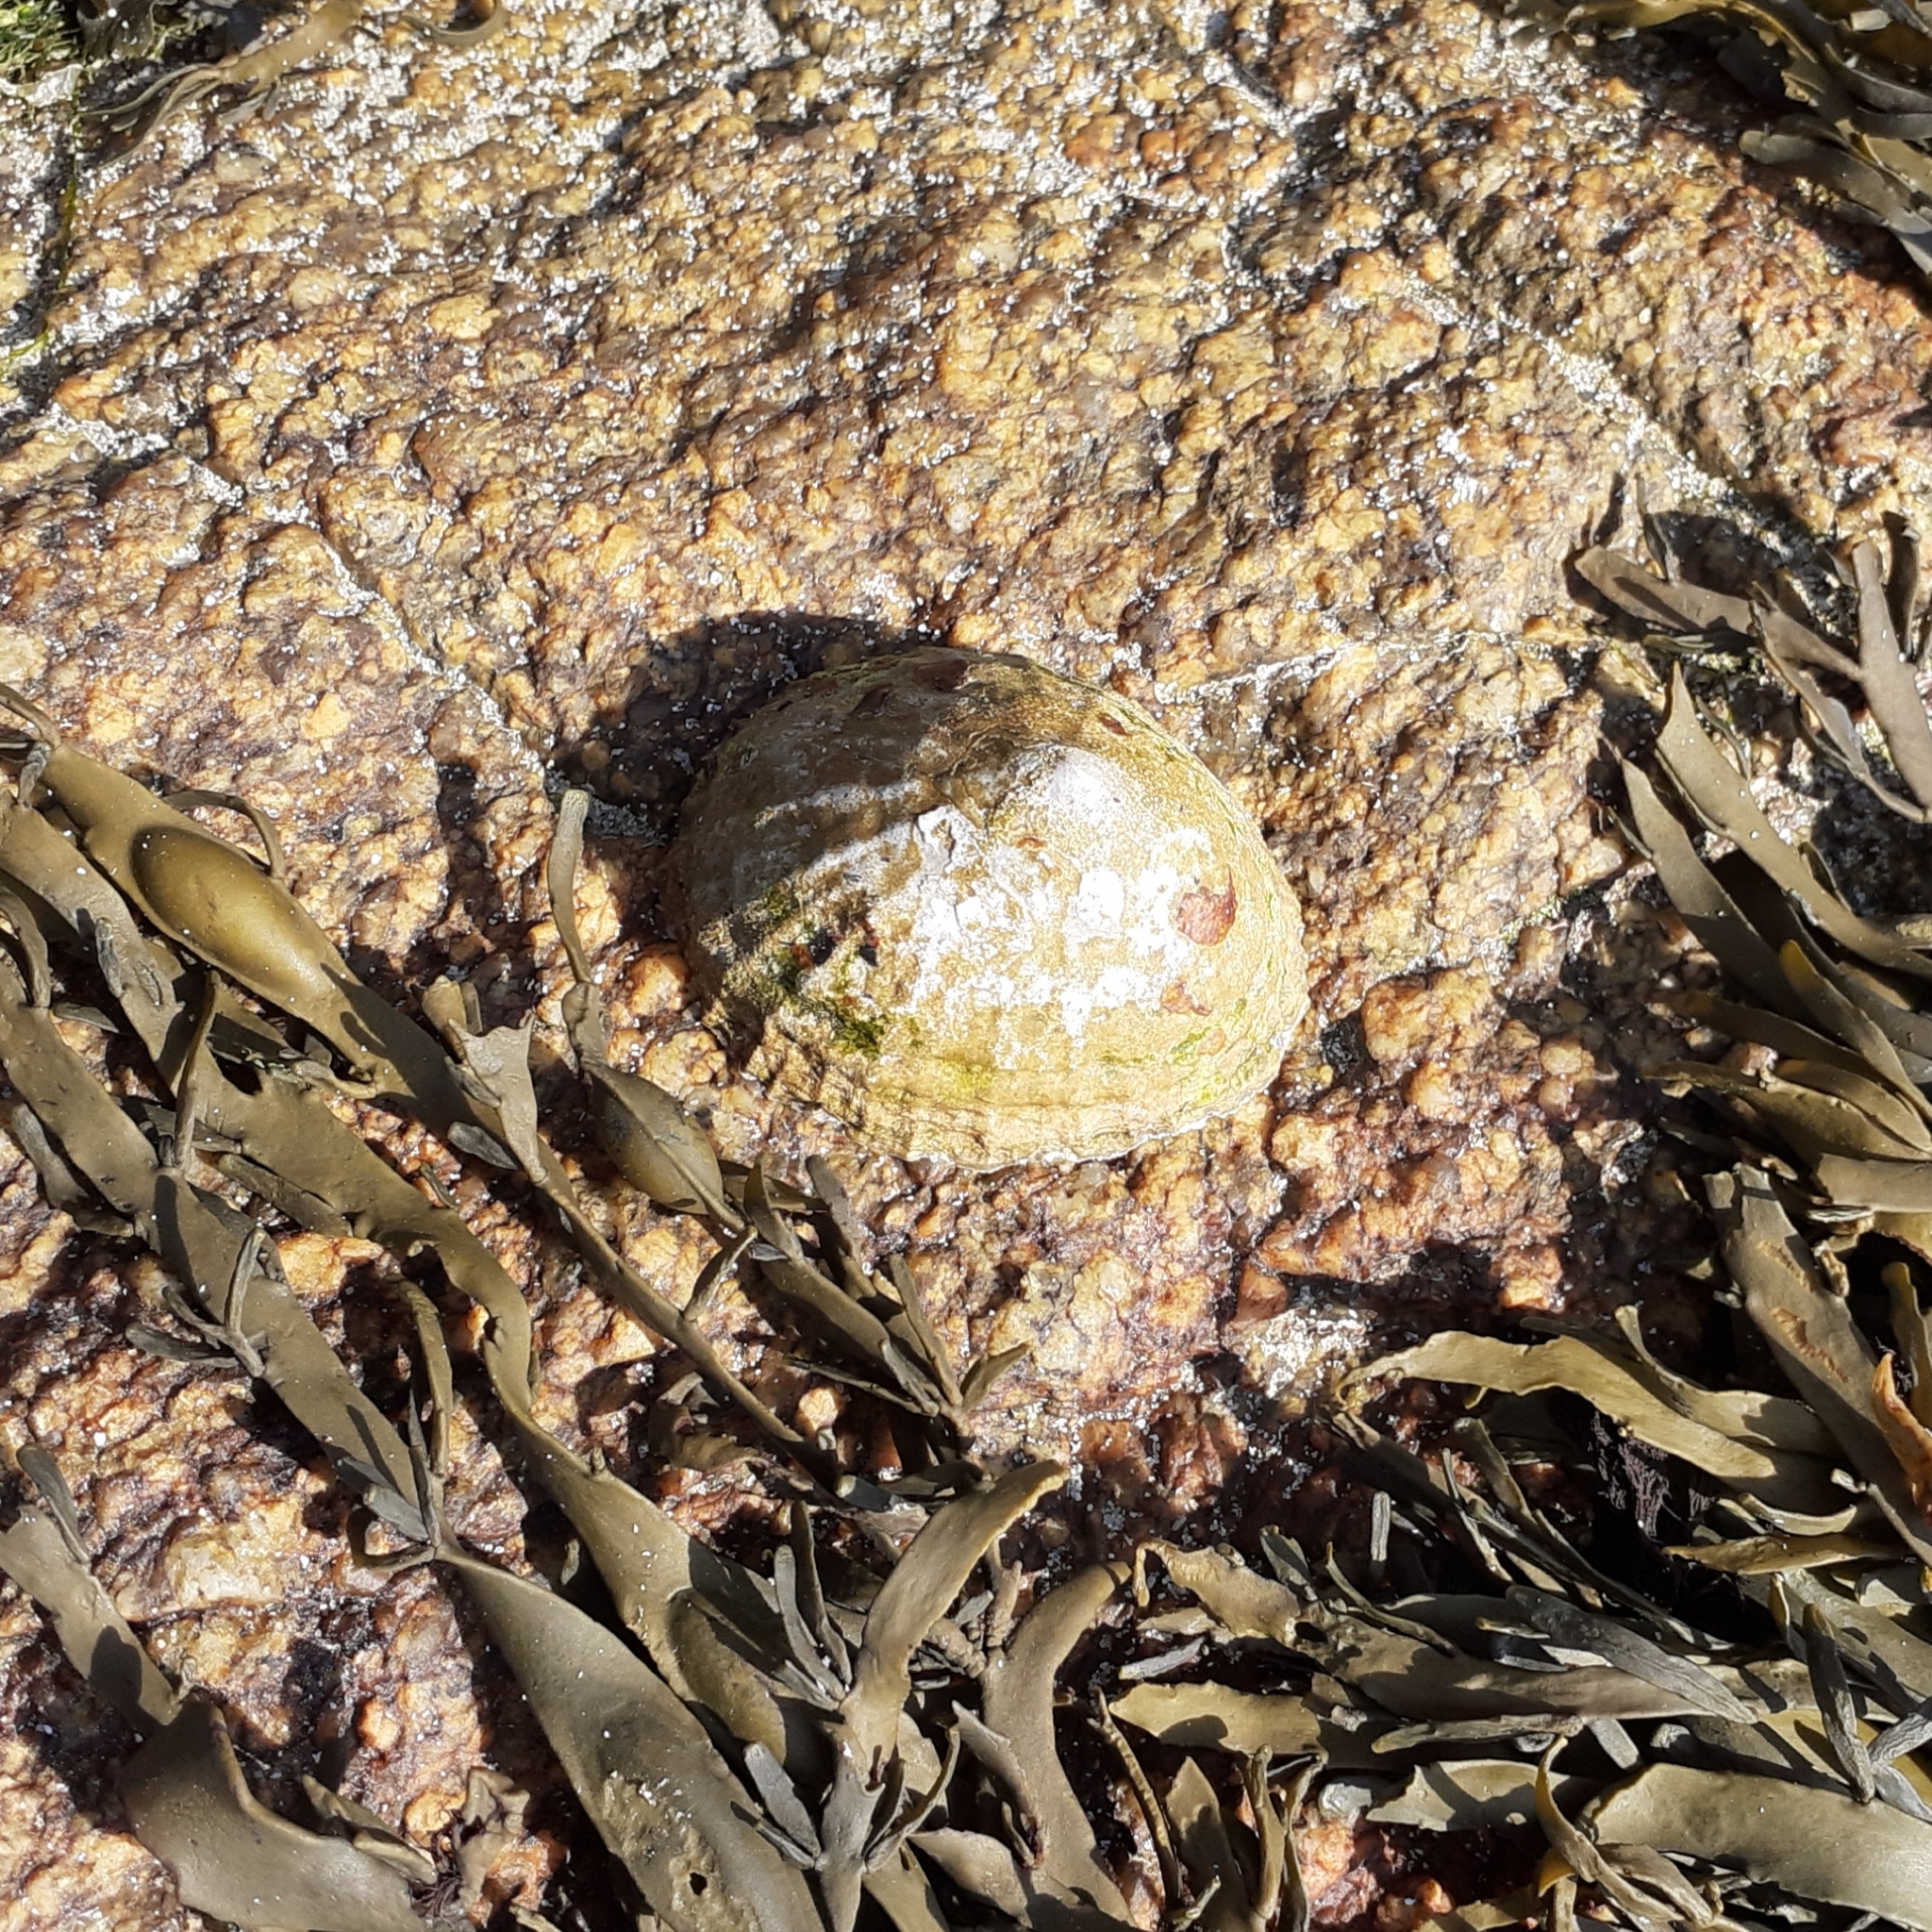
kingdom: Animalia
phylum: Mollusca
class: Gastropoda
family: Patellidae
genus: Patella
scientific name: Patella vulgata
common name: Common limpet
